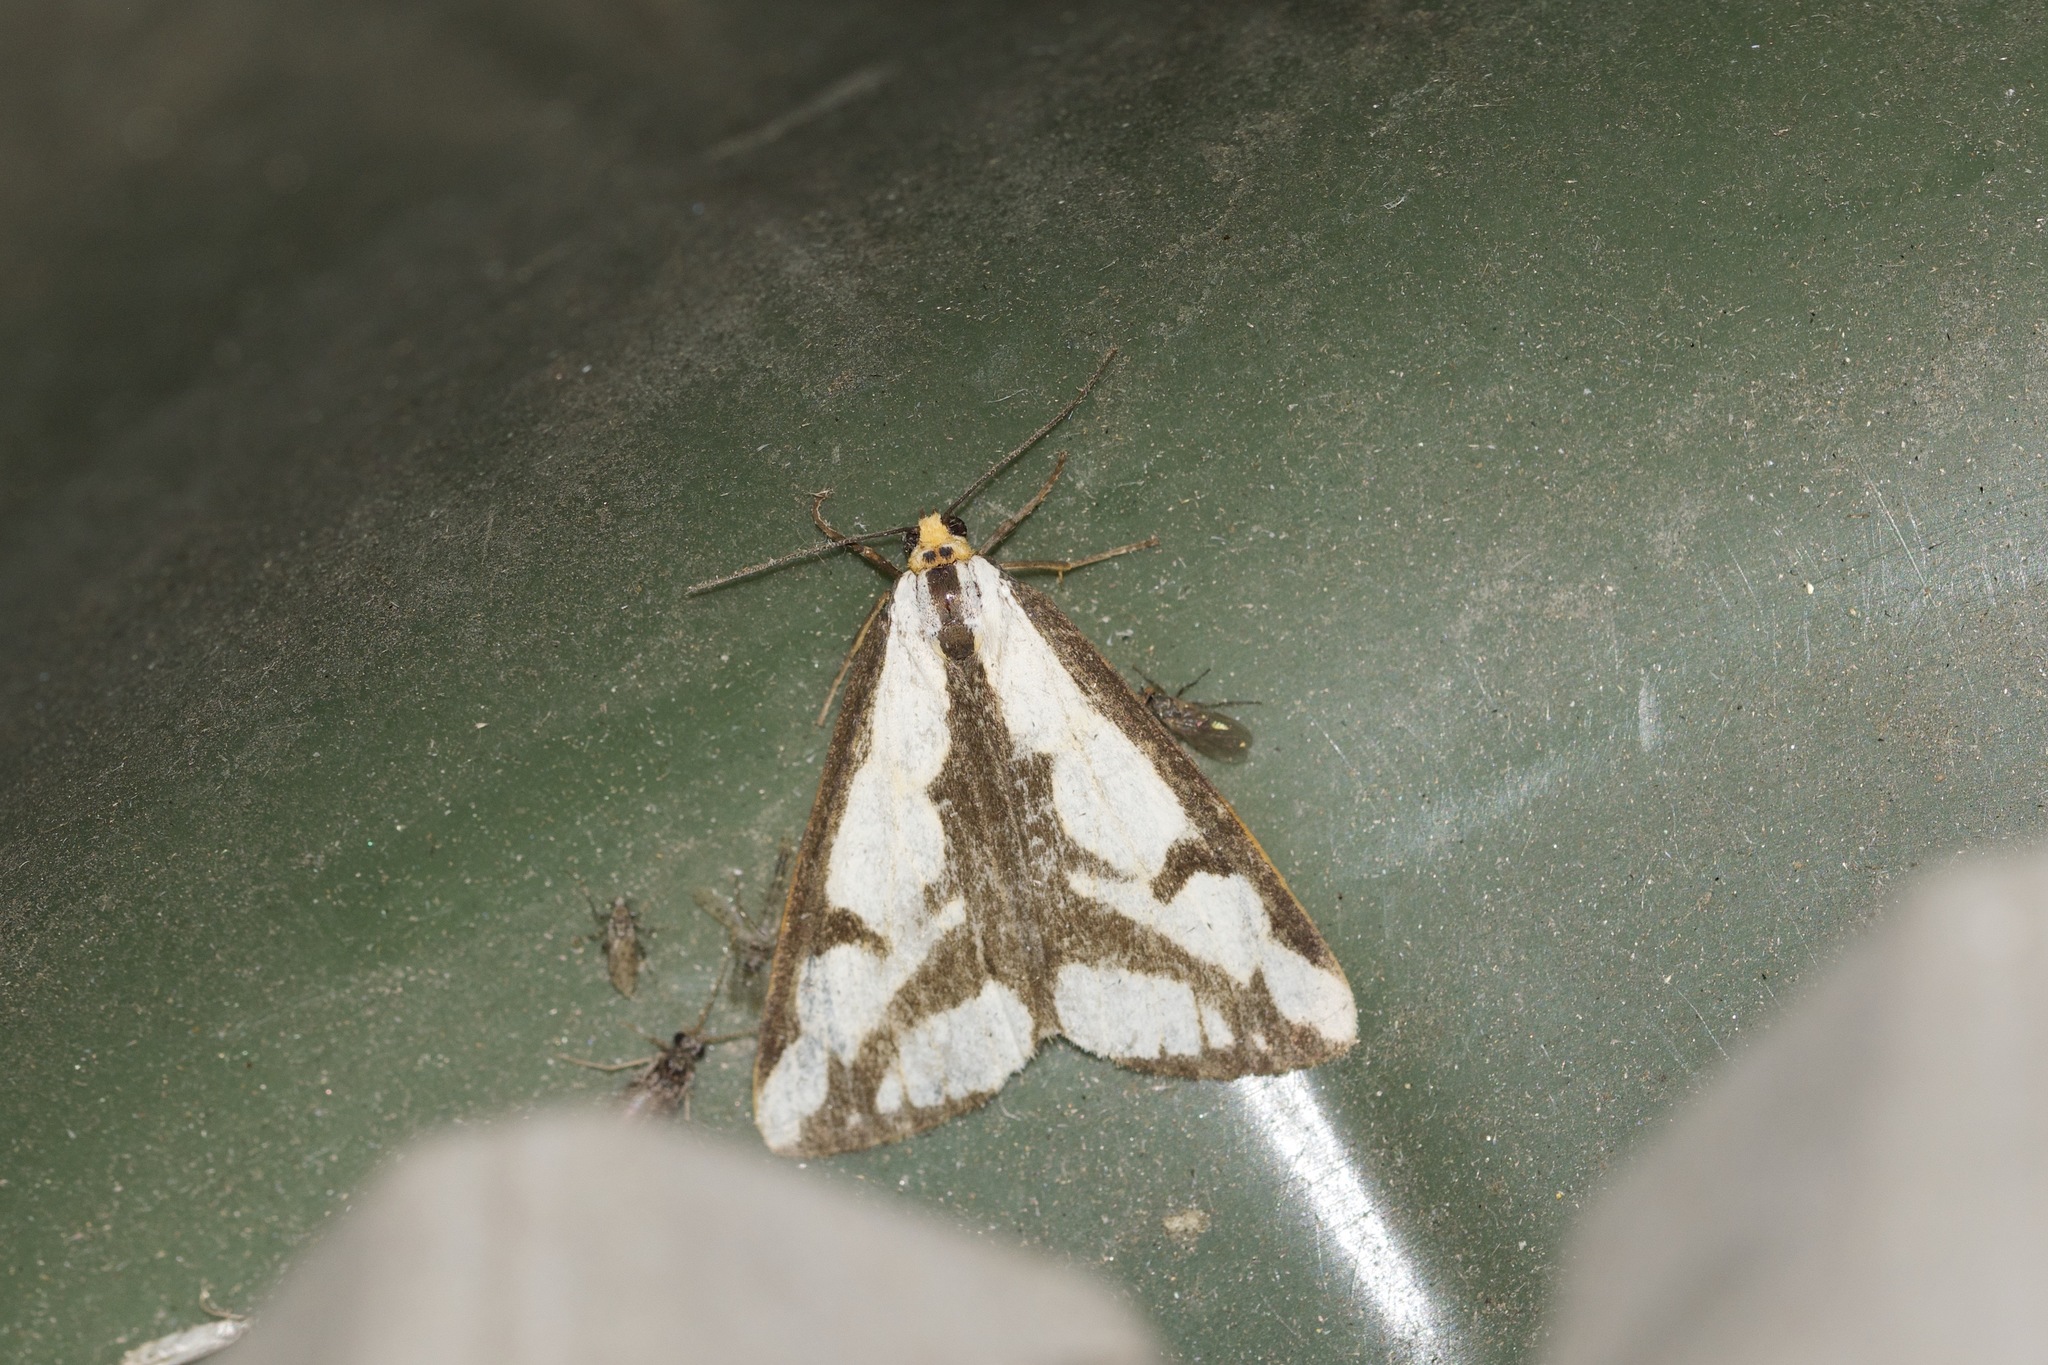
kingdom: Animalia
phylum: Arthropoda
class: Insecta
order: Lepidoptera
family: Erebidae
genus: Haploa
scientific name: Haploa lecontei
